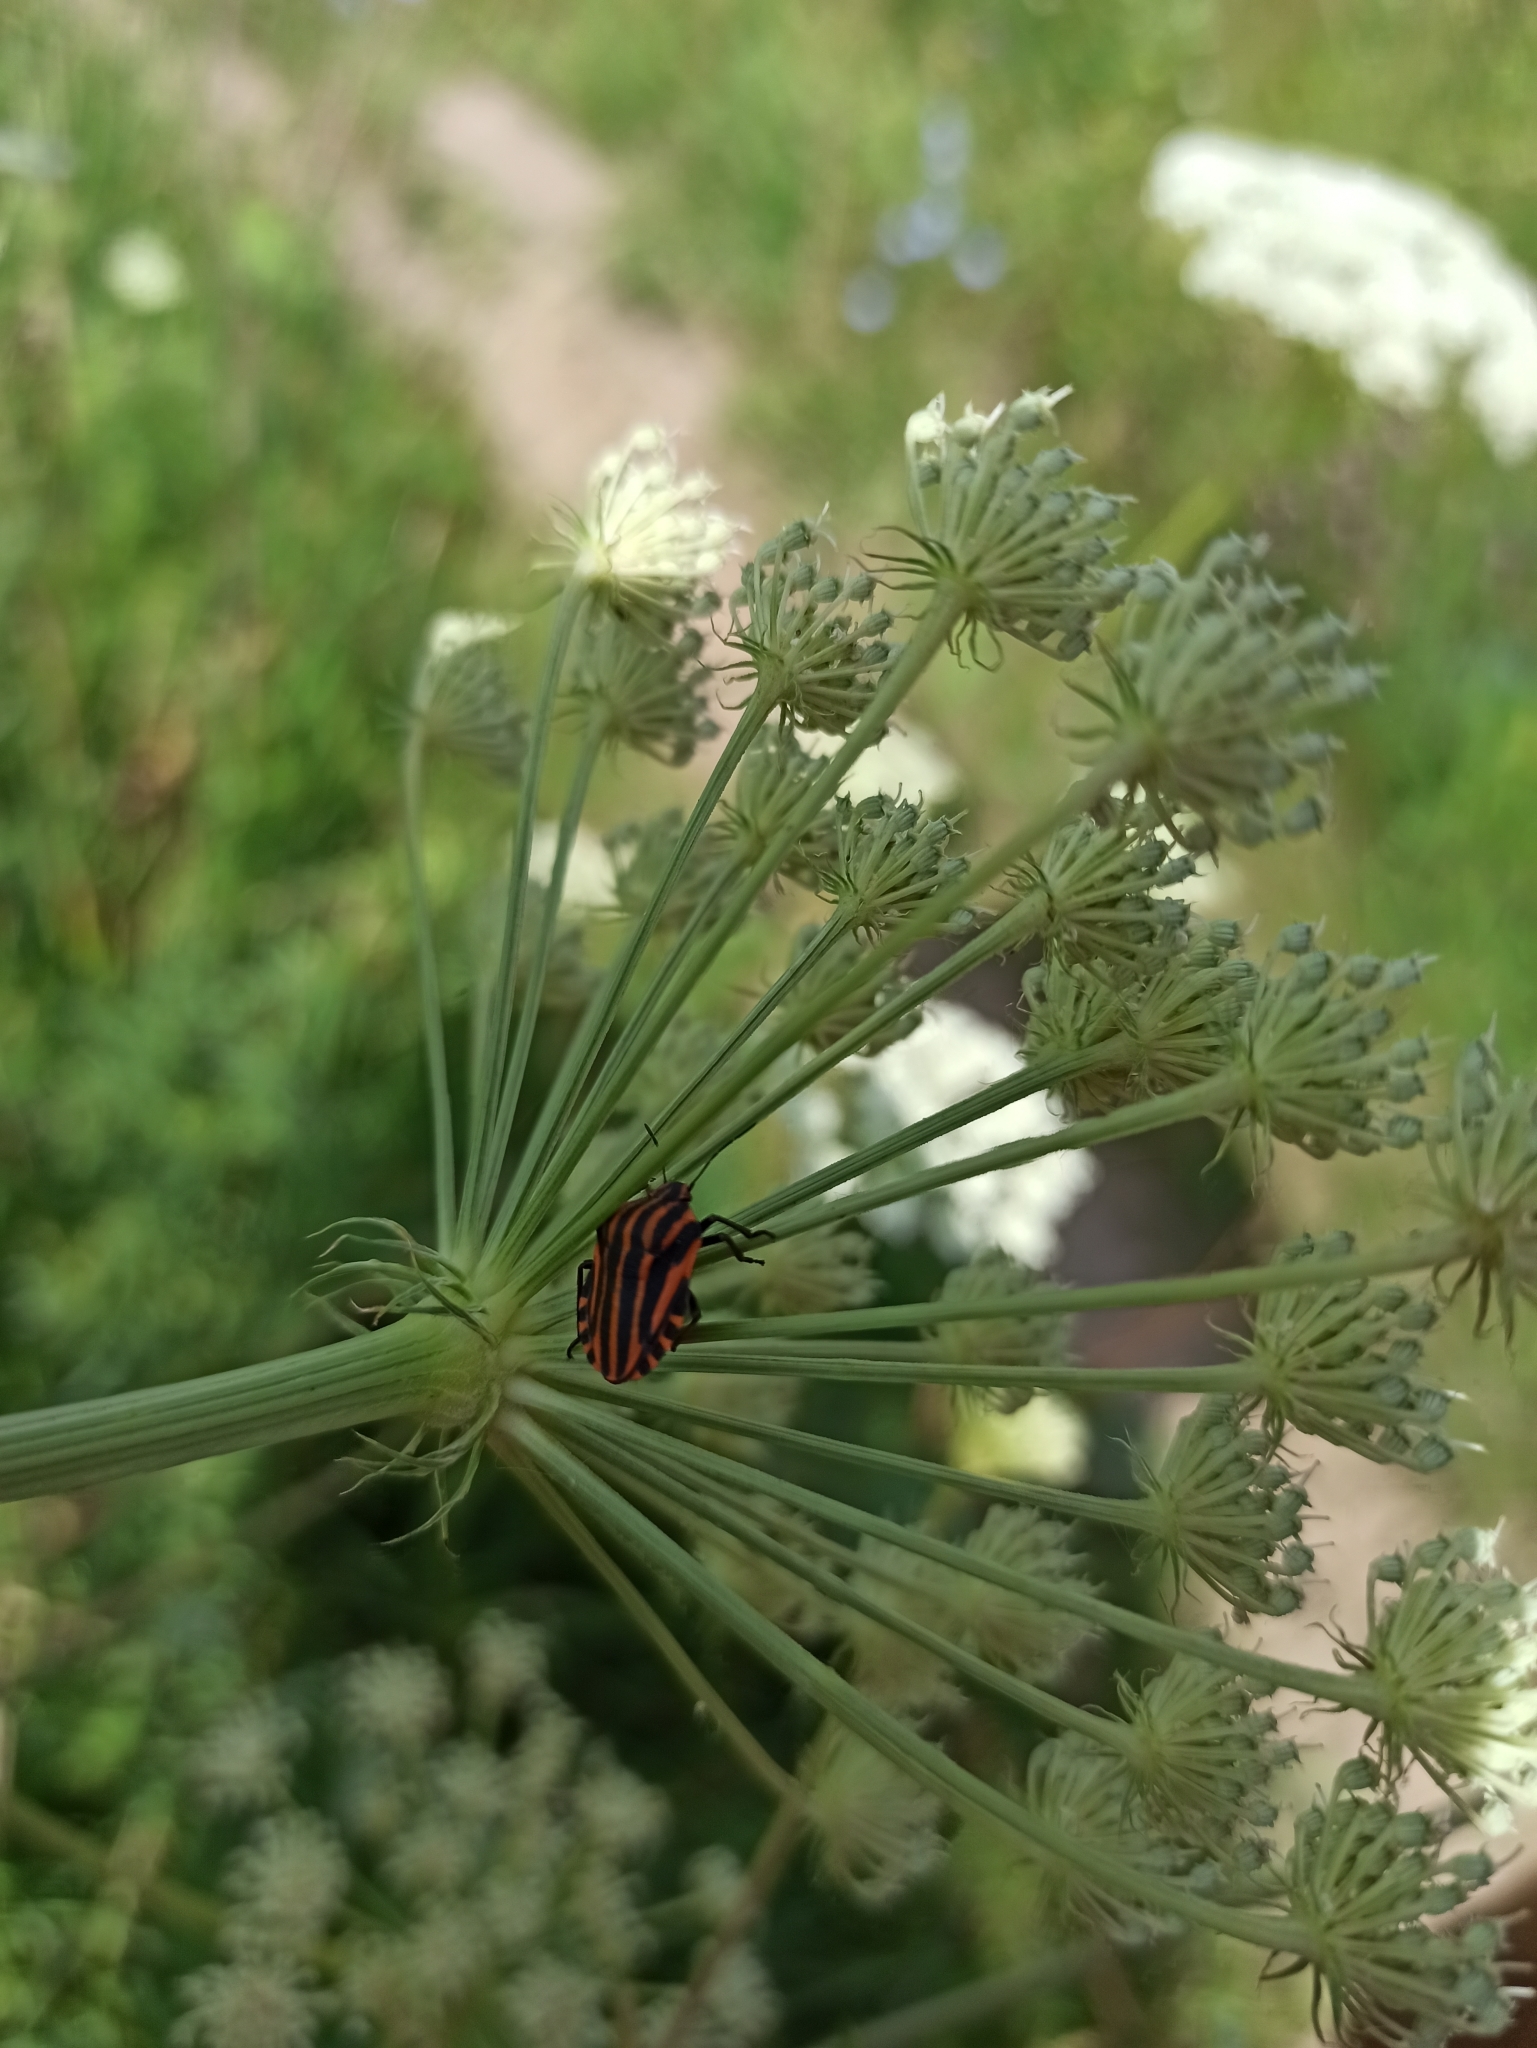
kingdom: Animalia
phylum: Arthropoda
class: Insecta
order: Hemiptera
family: Pentatomidae
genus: Graphosoma
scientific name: Graphosoma italicum
